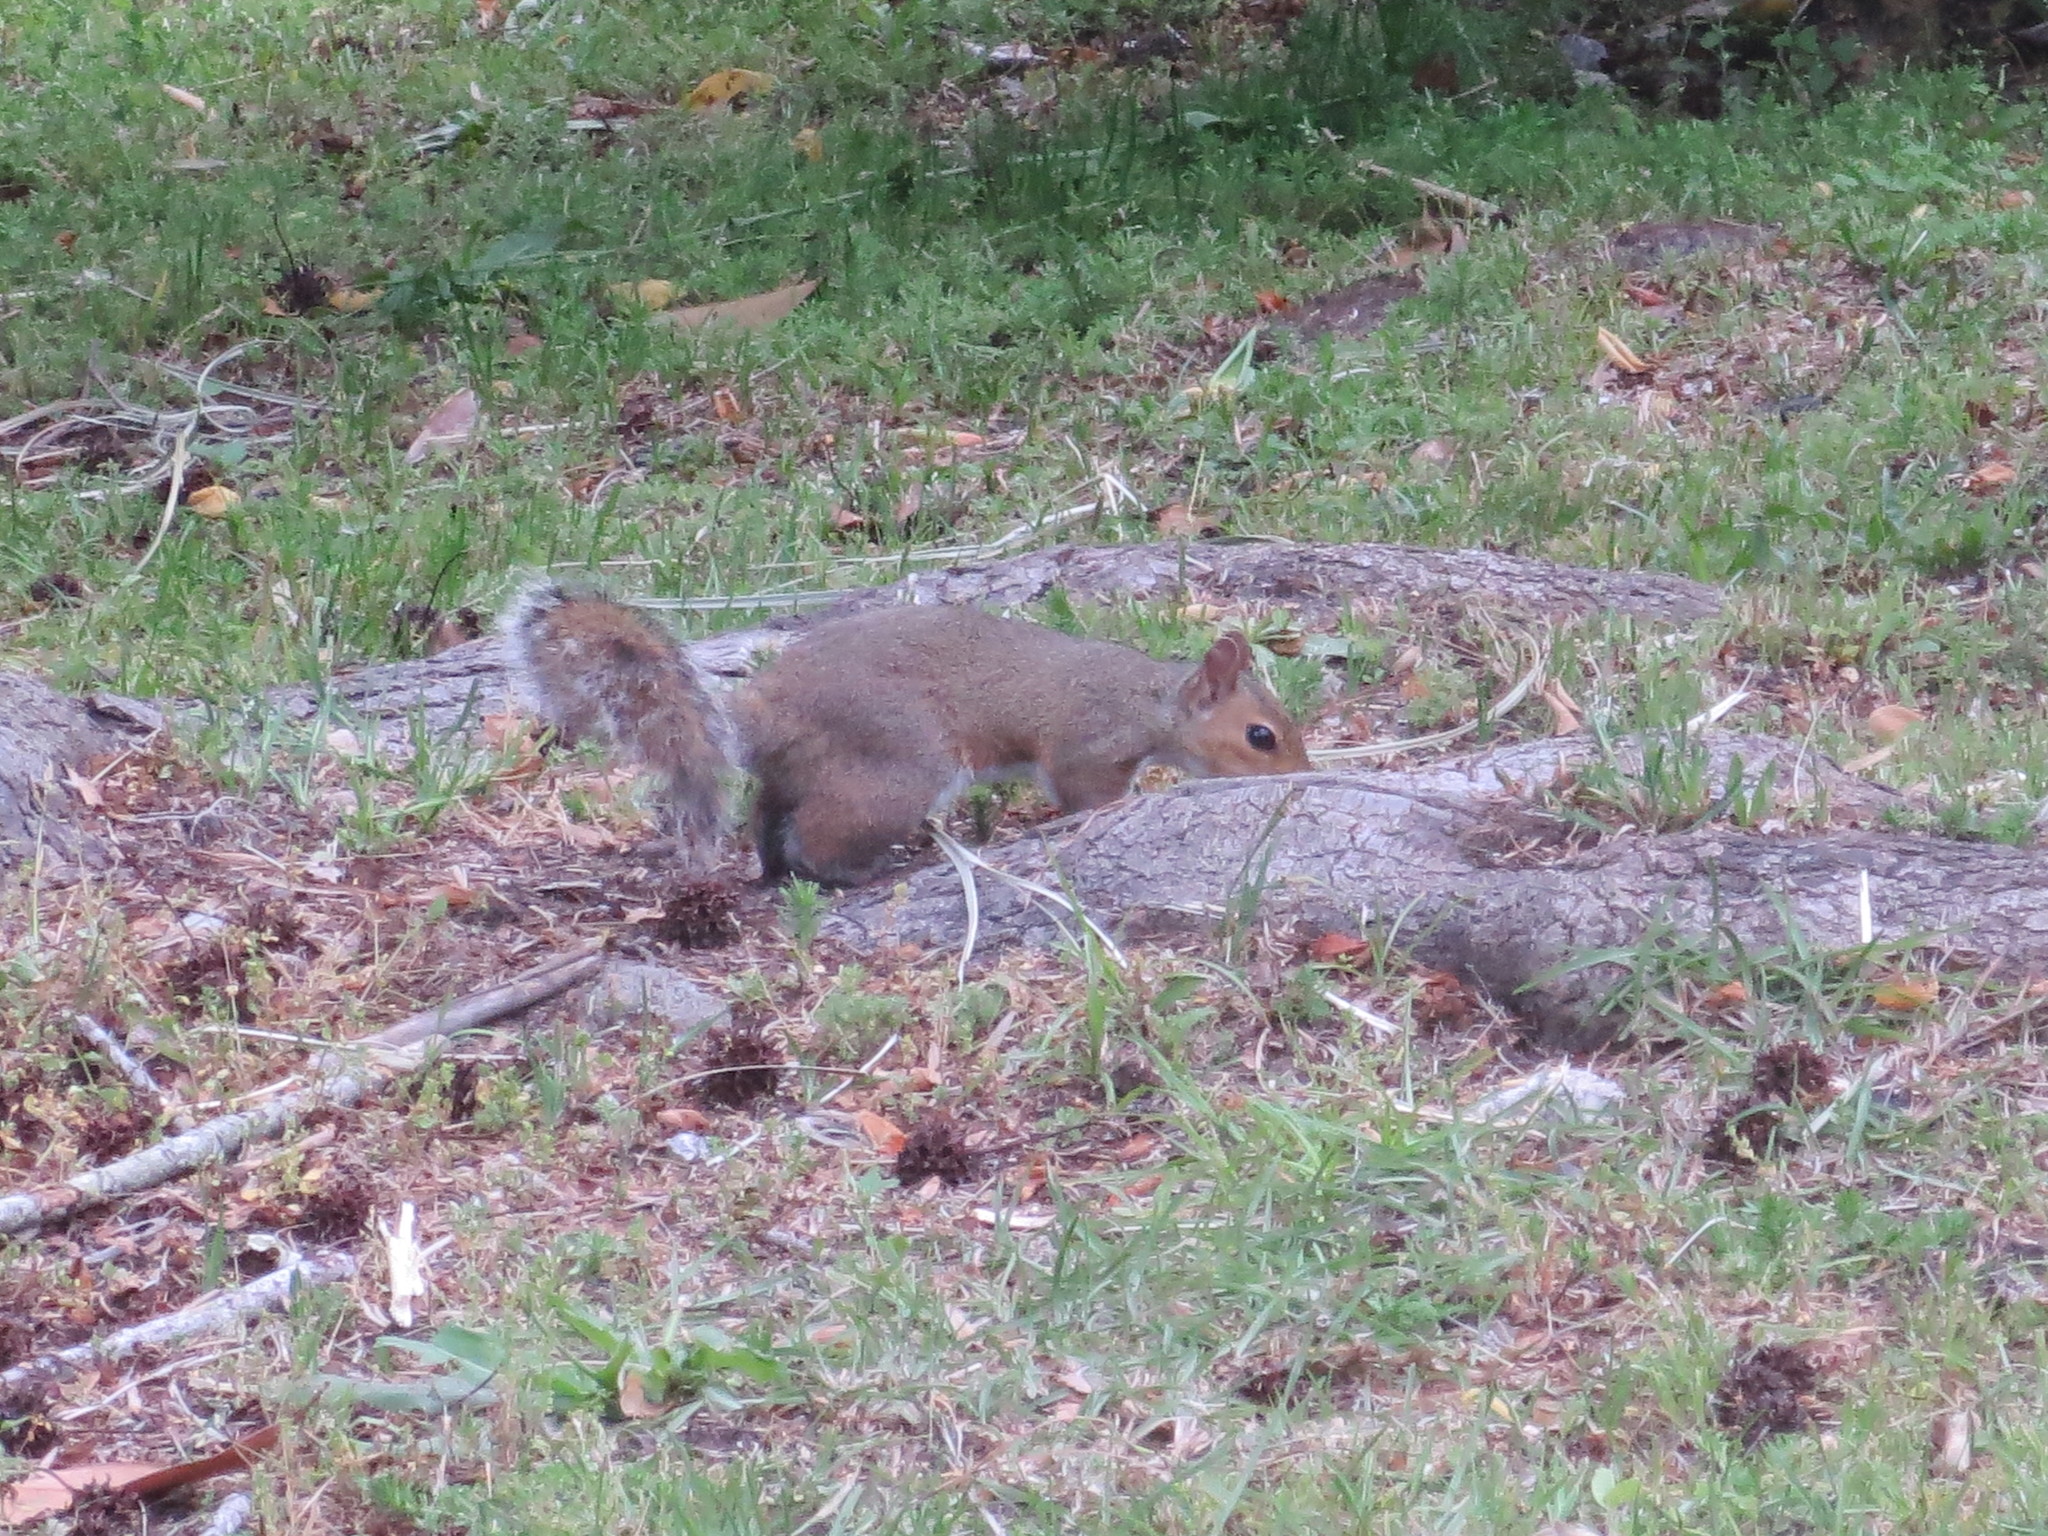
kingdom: Animalia
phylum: Chordata
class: Mammalia
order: Rodentia
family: Sciuridae
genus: Sciurus
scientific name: Sciurus carolinensis
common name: Eastern gray squirrel
